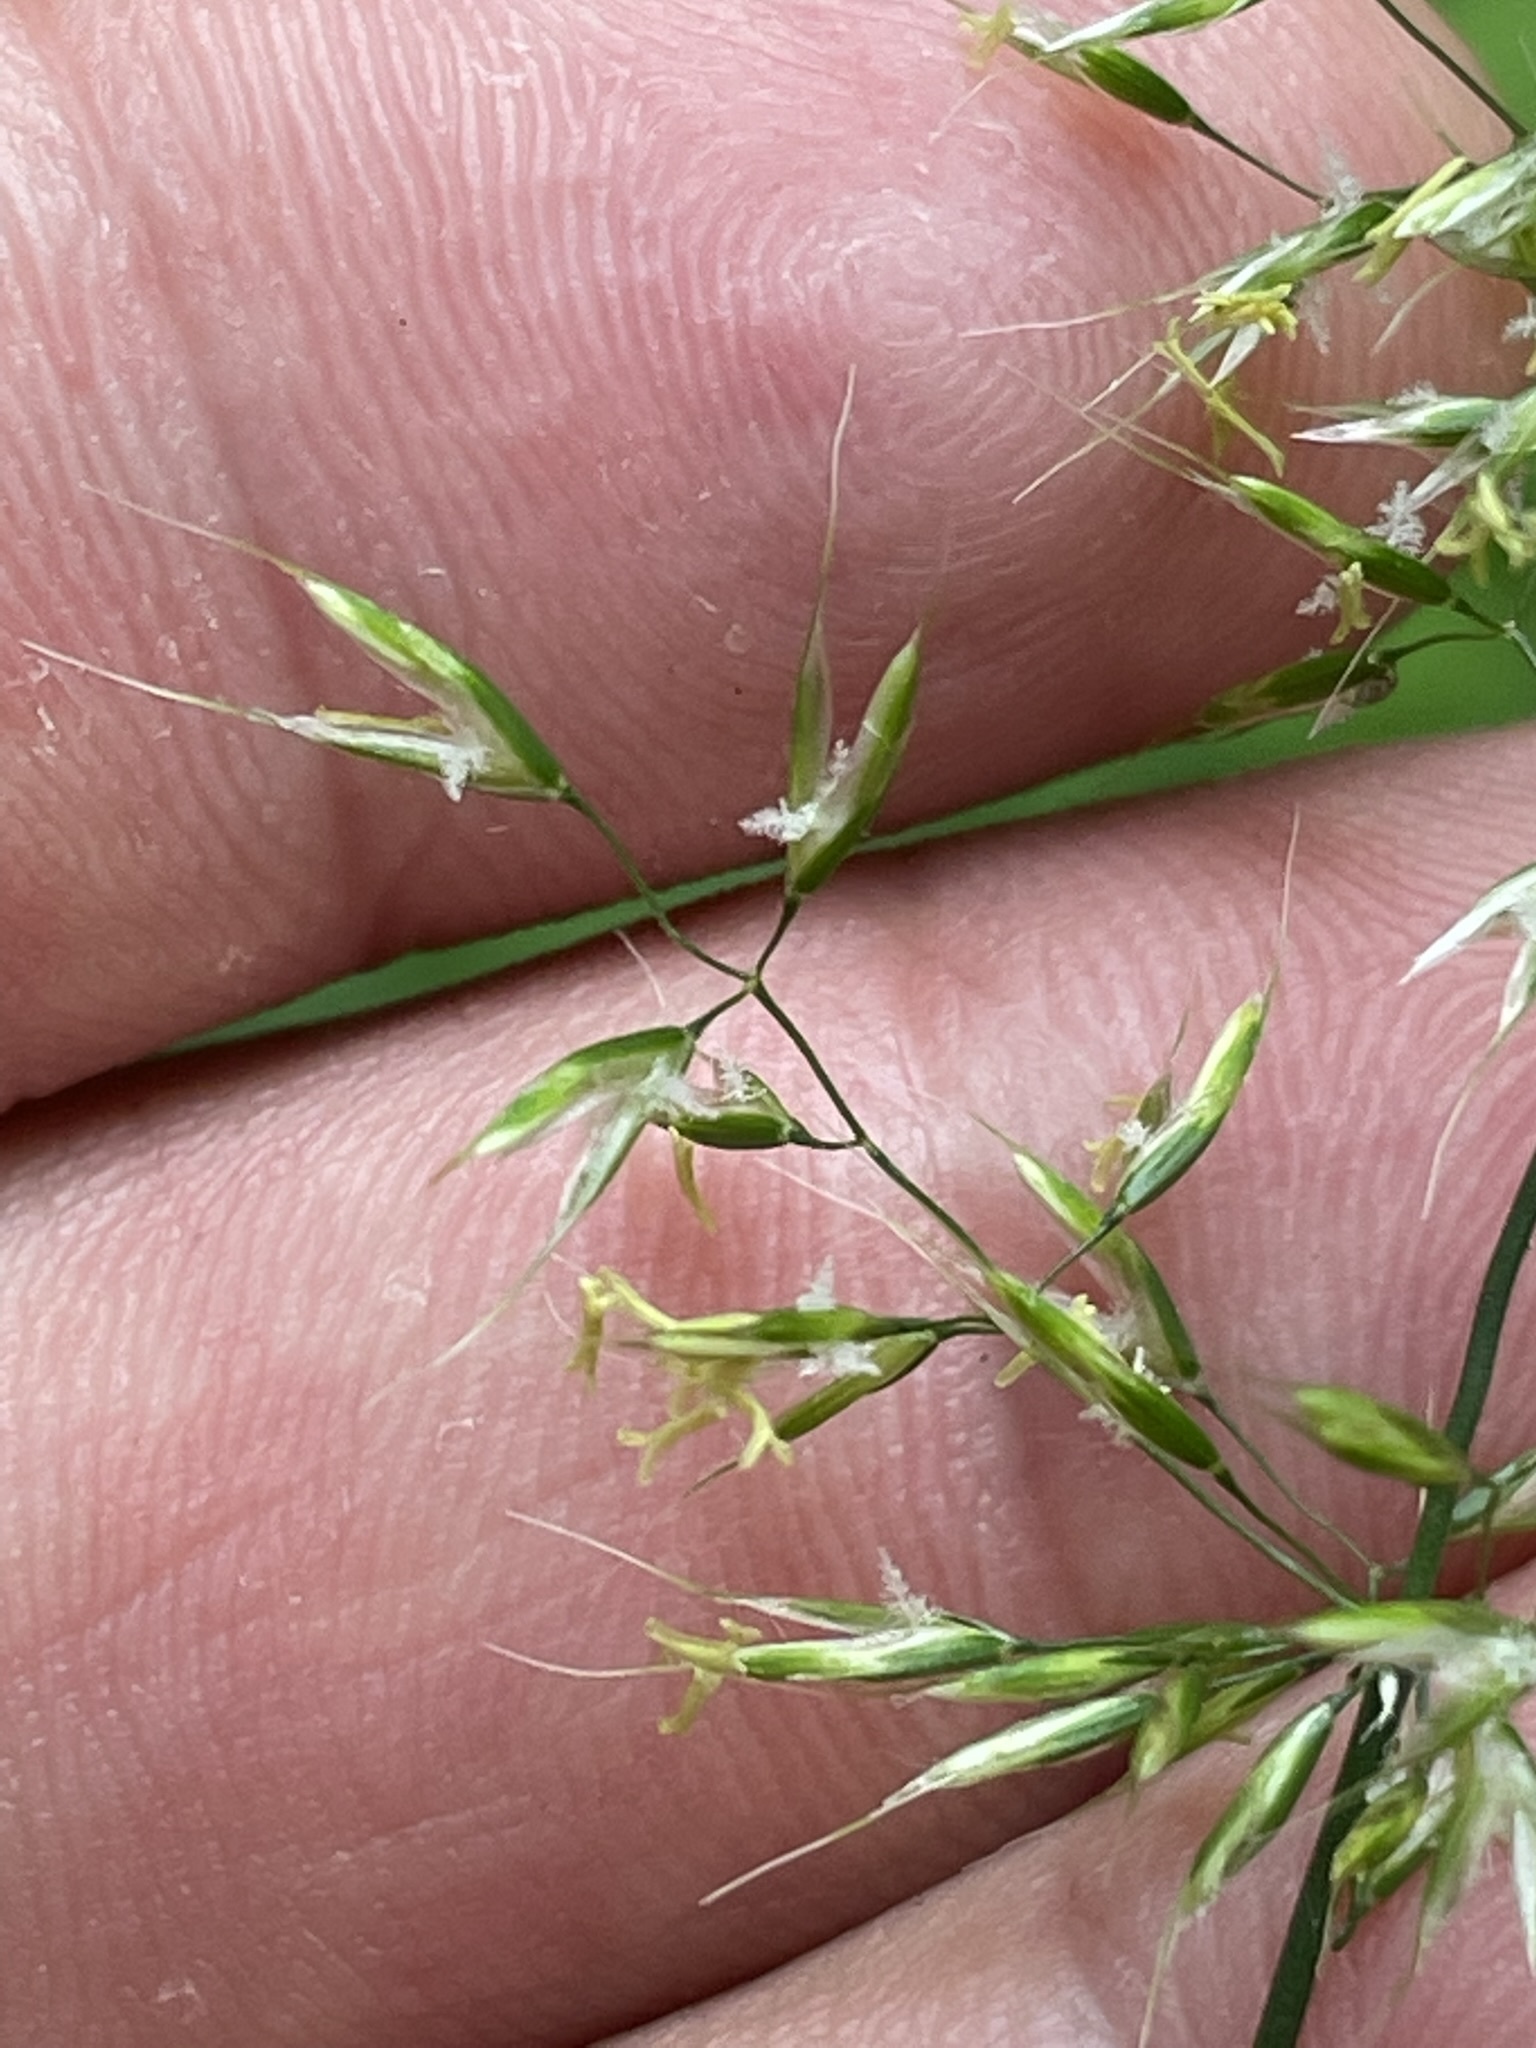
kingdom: Plantae
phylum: Tracheophyta
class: Liliopsida
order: Poales
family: Poaceae
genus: Trisetum
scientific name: Trisetum flavescens
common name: Yellow oat-grass
